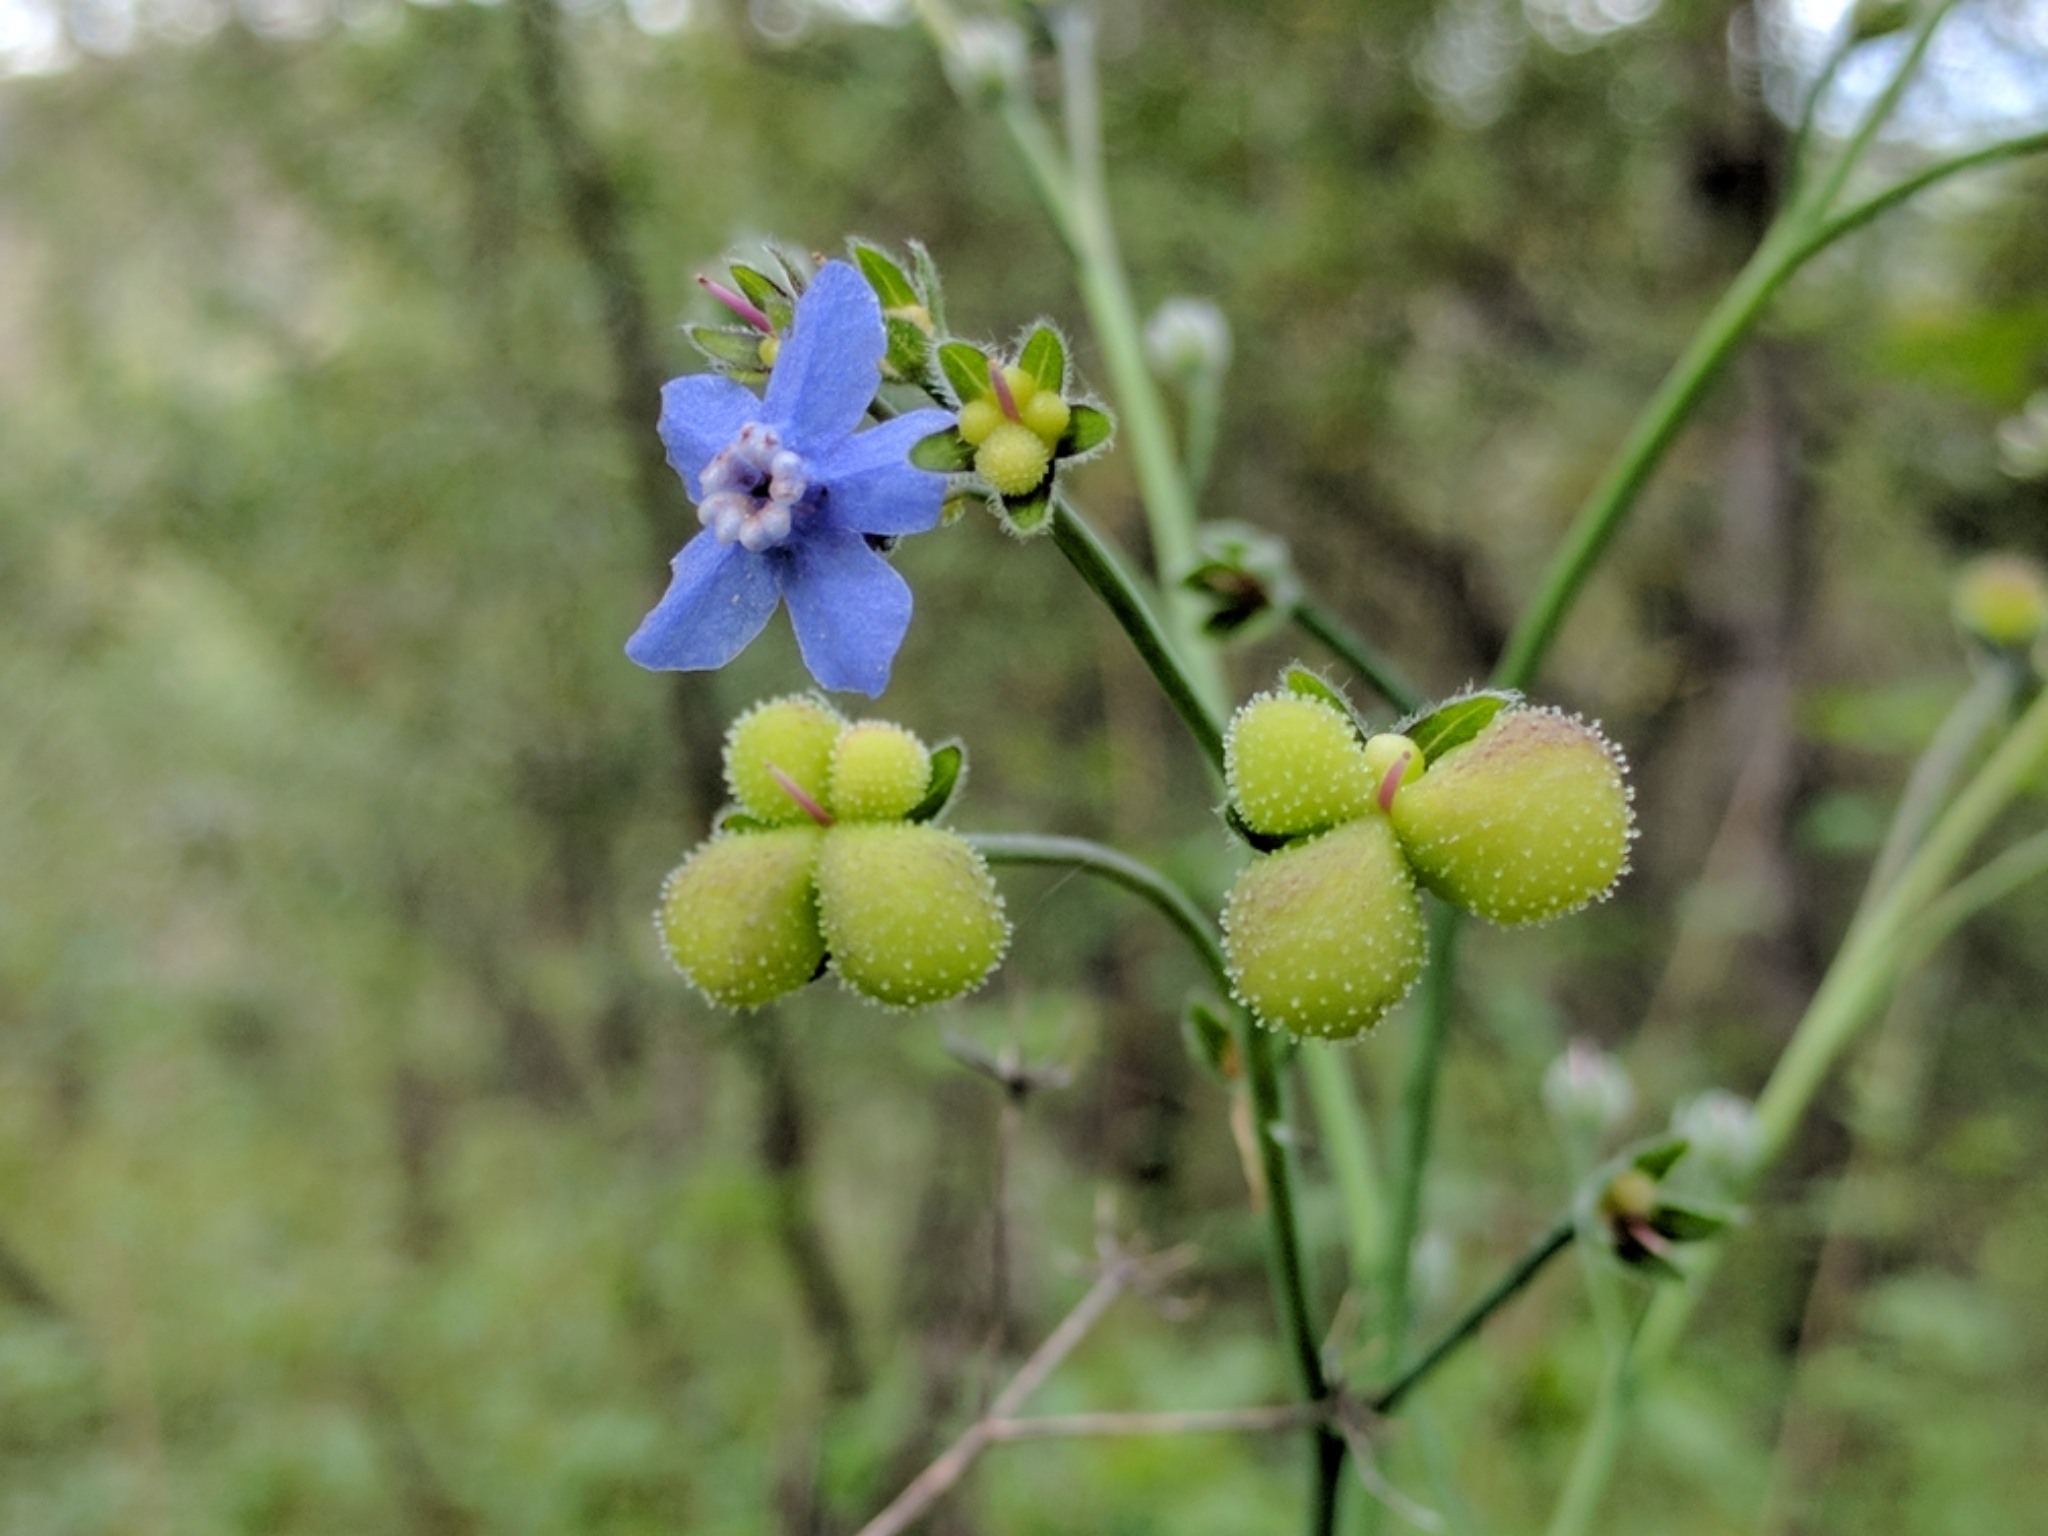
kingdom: Plantae
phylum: Tracheophyta
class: Magnoliopsida
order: Boraginales
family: Boraginaceae
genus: Adelinia
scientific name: Adelinia grande
